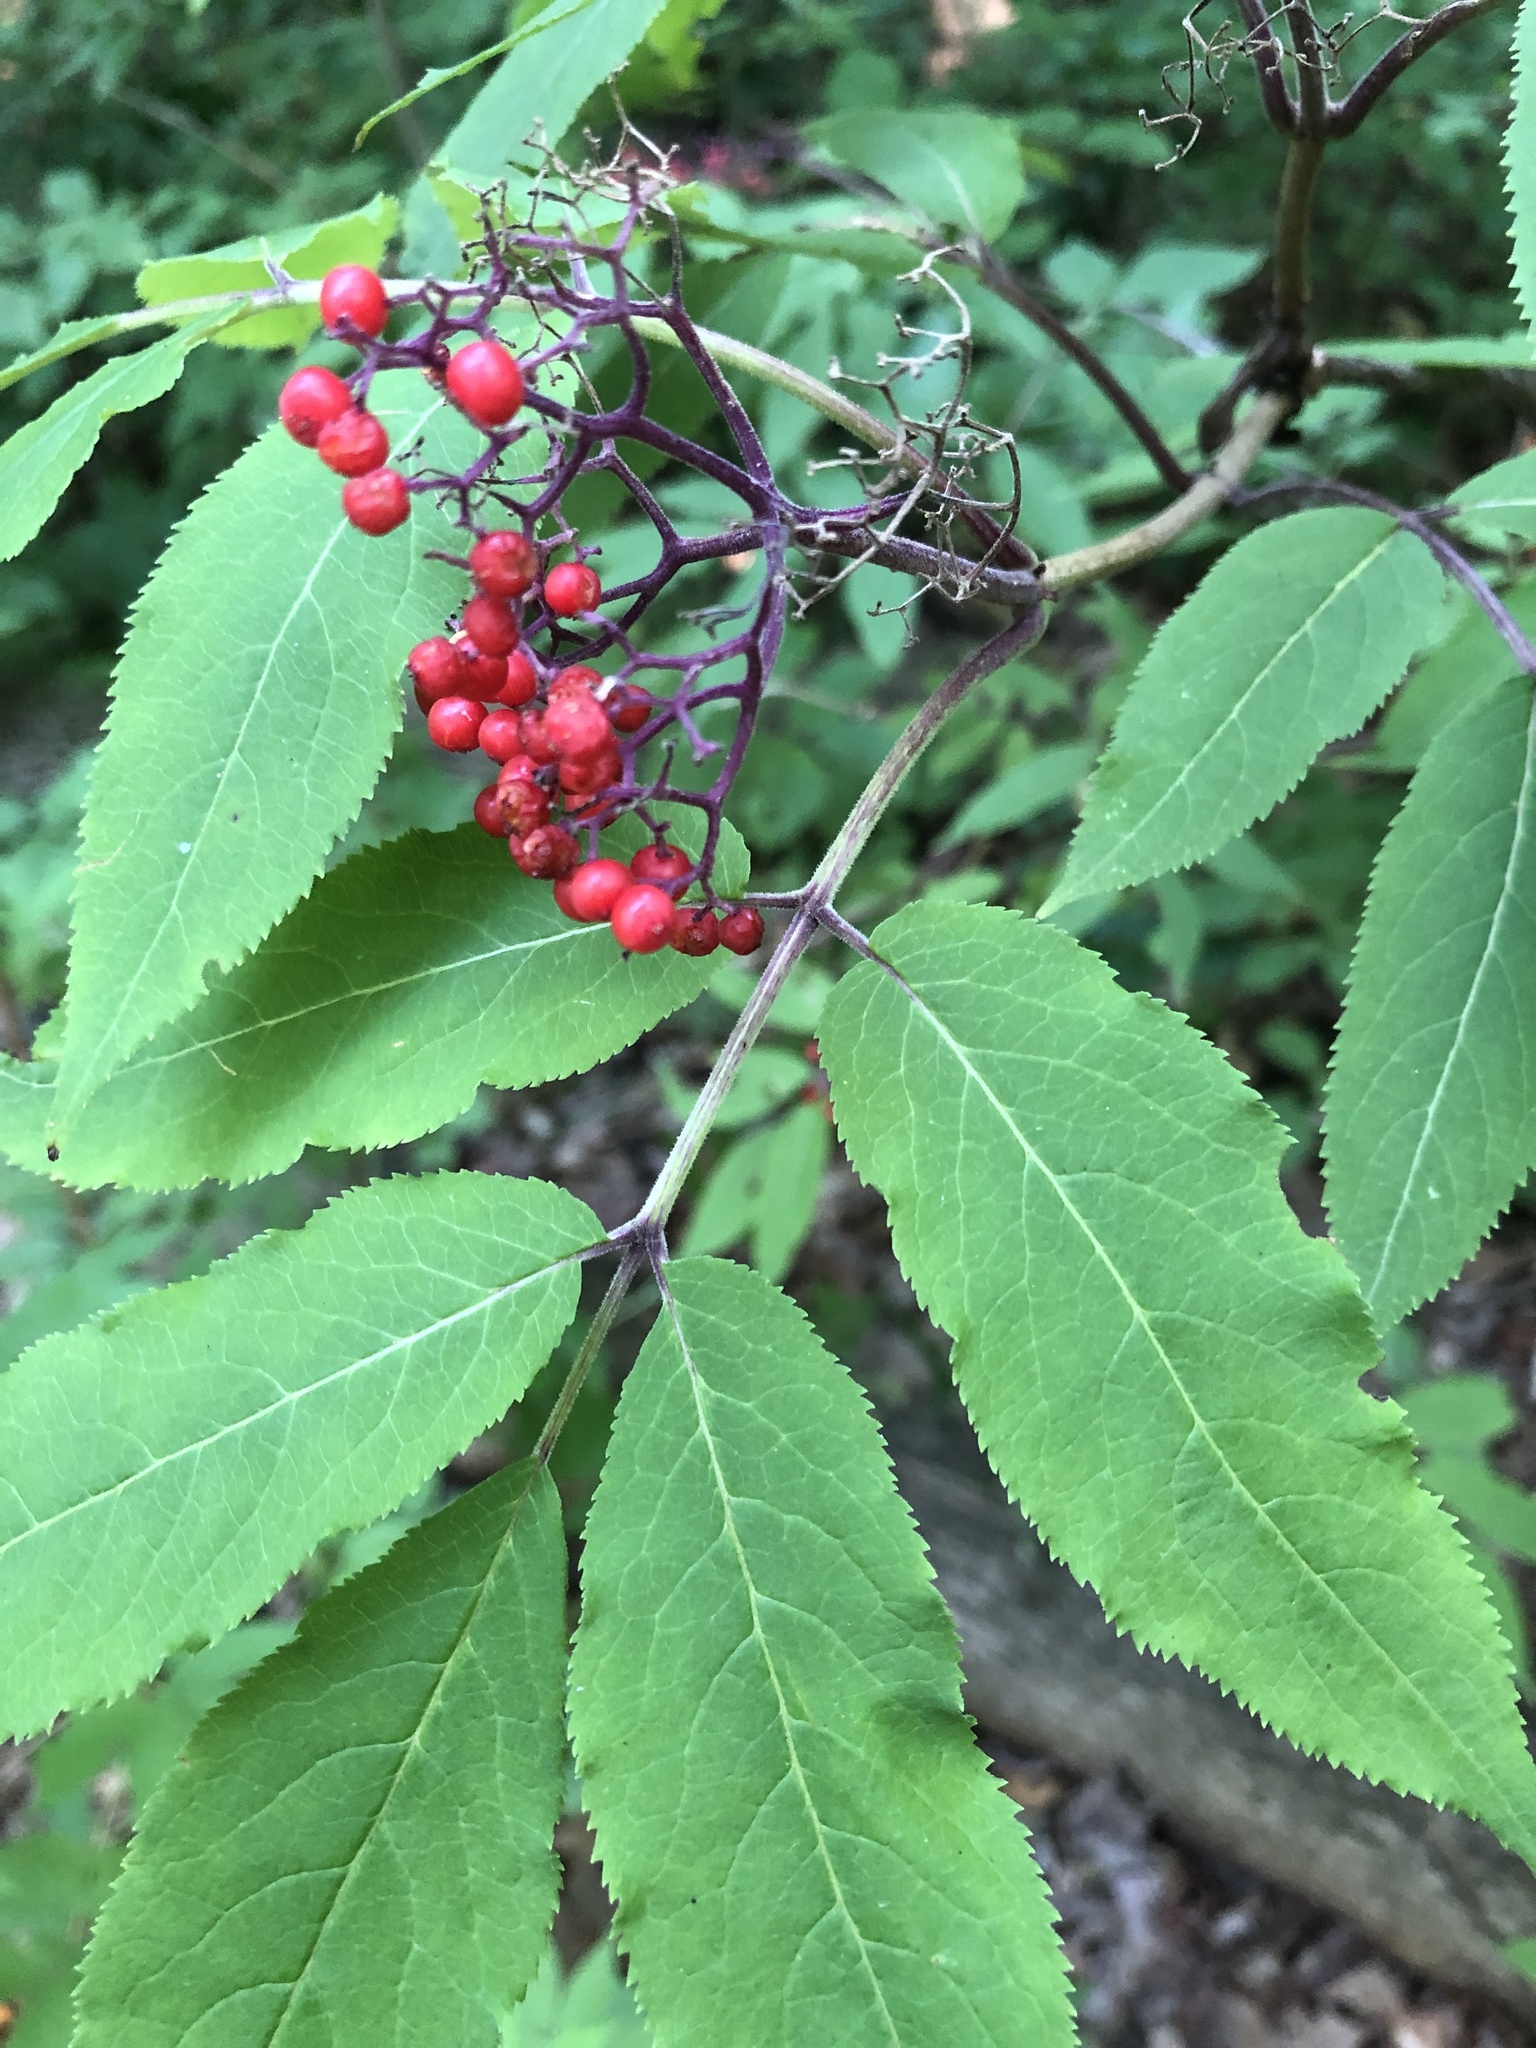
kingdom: Plantae
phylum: Tracheophyta
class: Magnoliopsida
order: Dipsacales
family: Viburnaceae
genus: Sambucus
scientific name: Sambucus racemosa
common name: Red-berried elder
